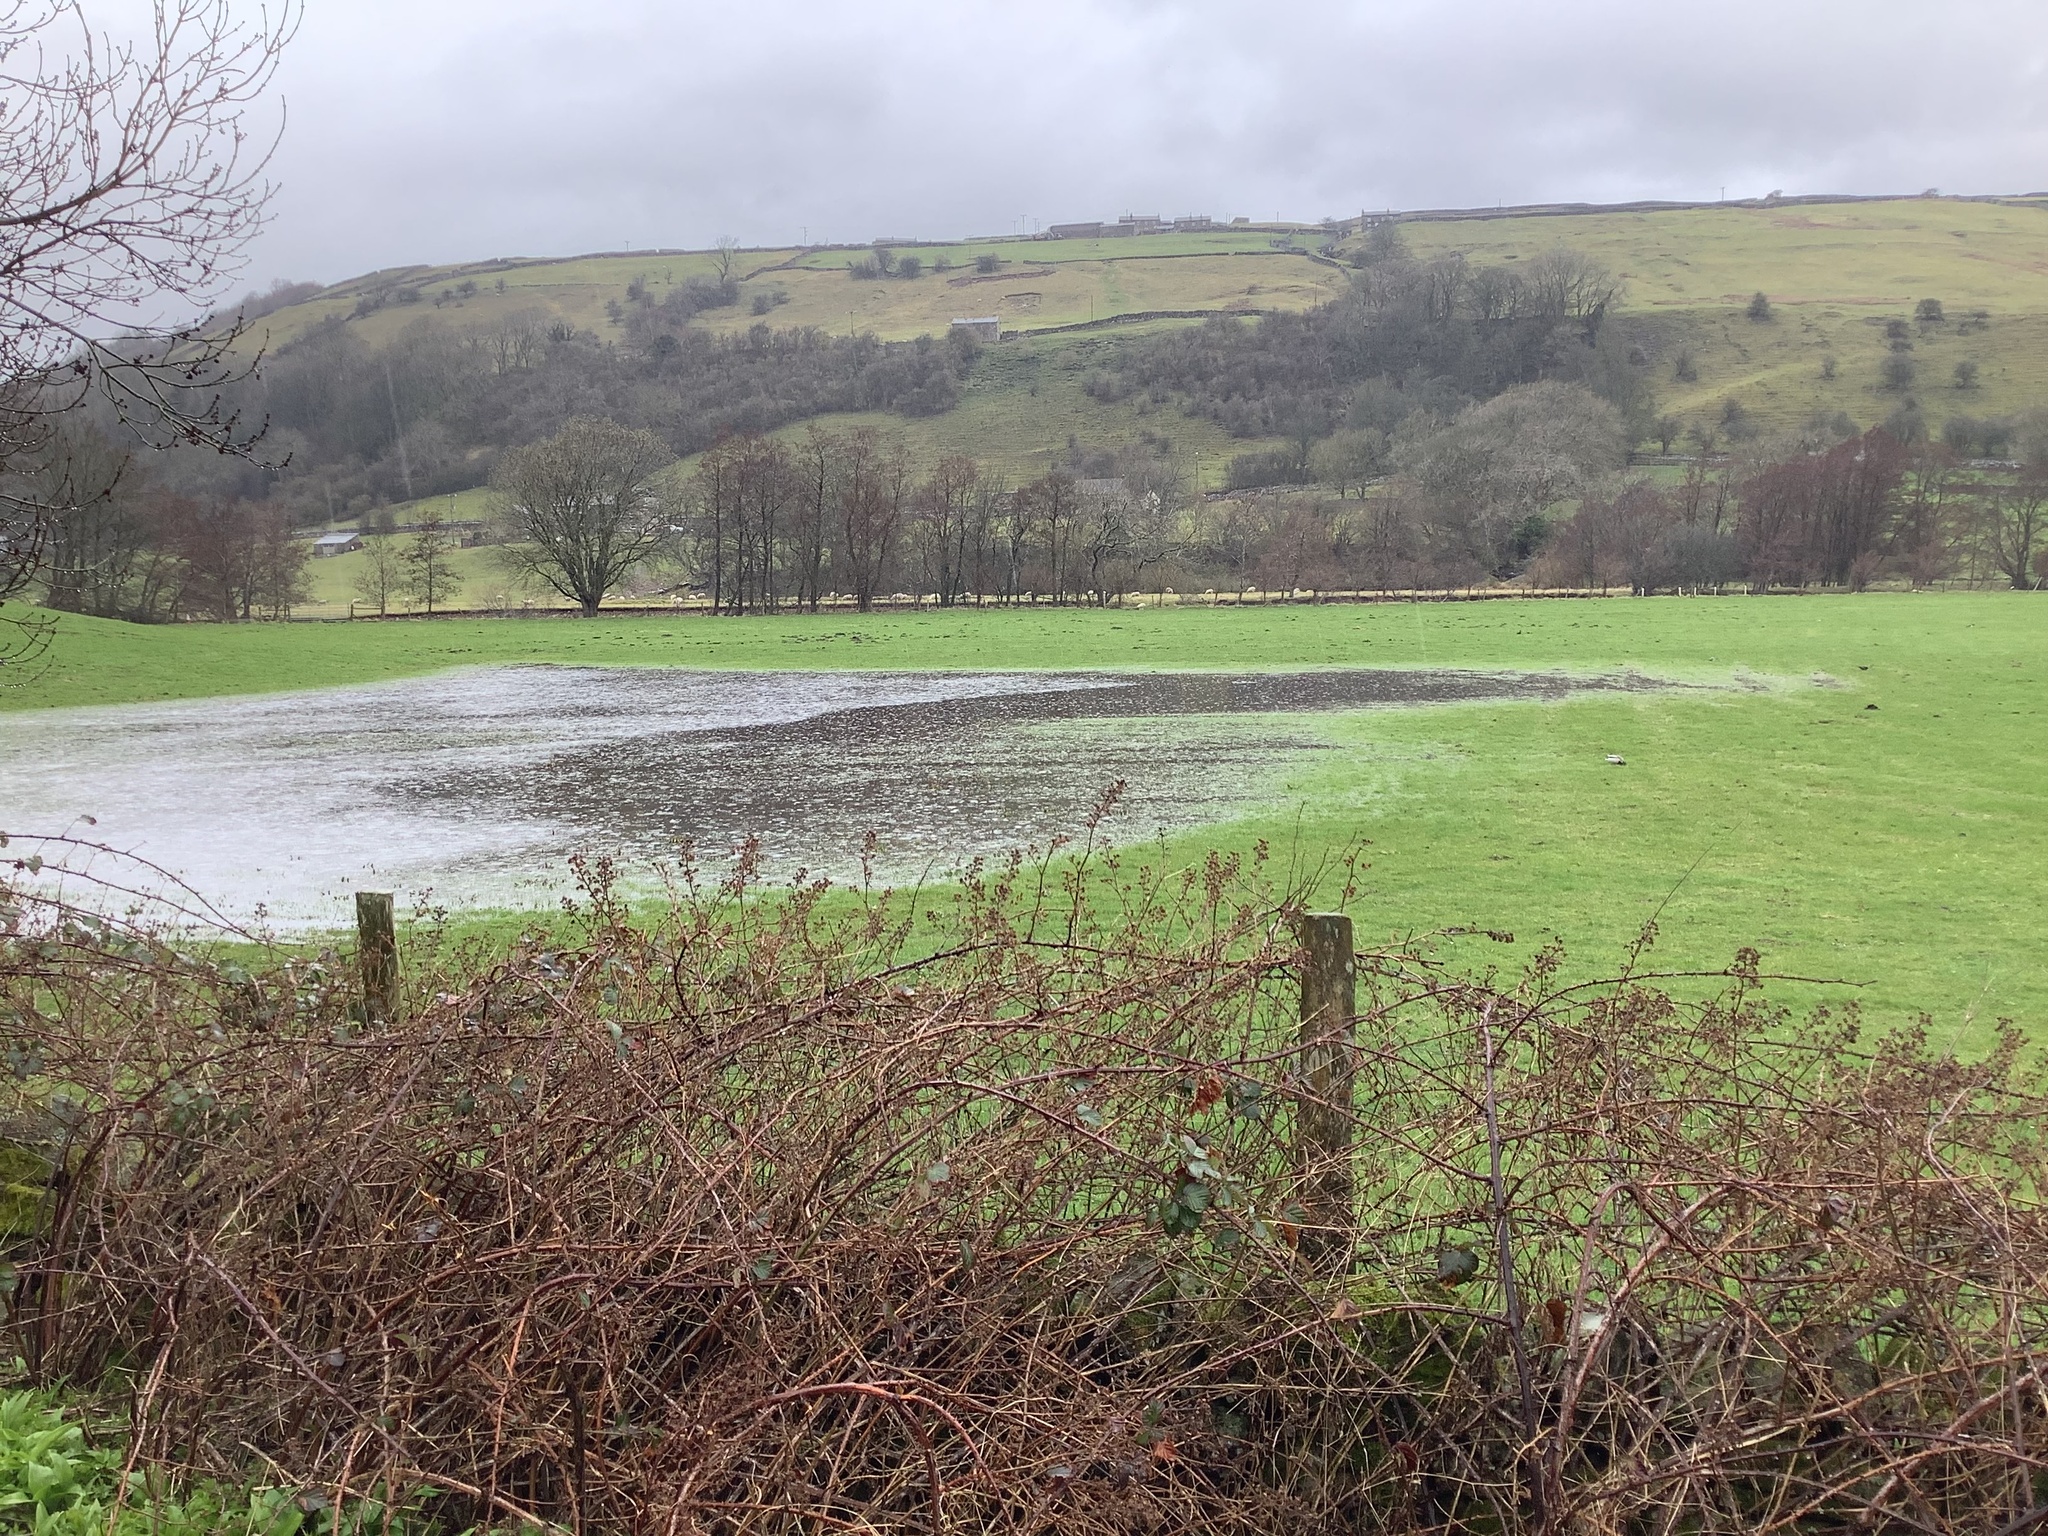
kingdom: Animalia
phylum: Chordata
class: Aves
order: Anseriformes
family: Anatidae
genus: Anas
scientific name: Anas crecca
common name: Eurasian teal
